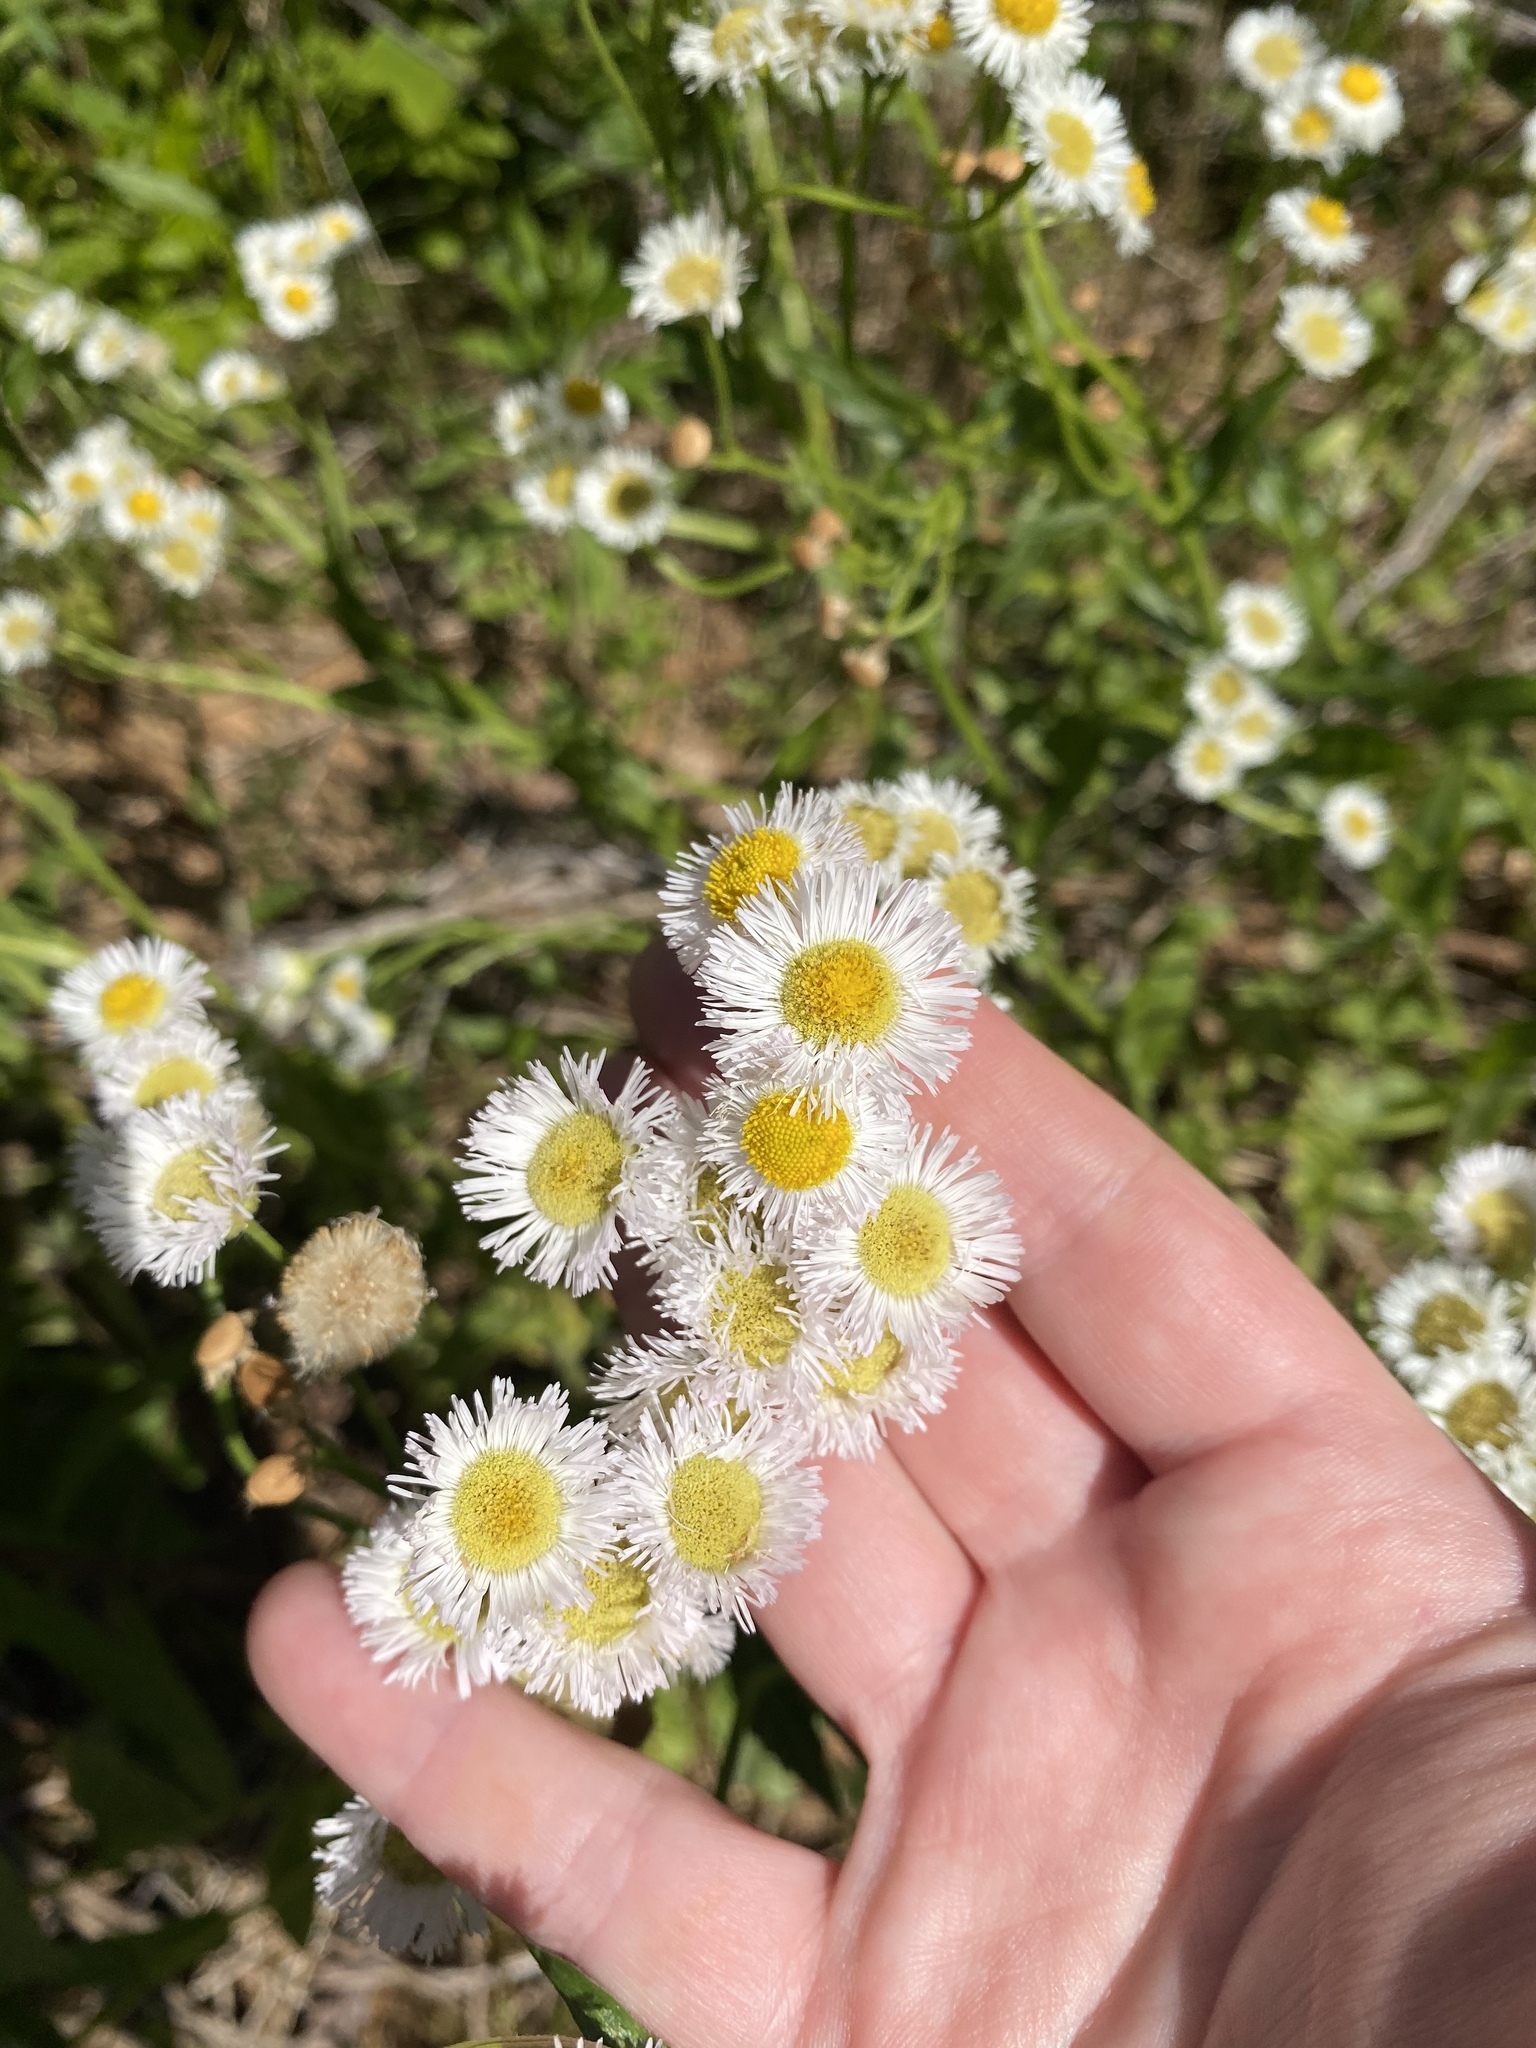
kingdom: Plantae
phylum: Tracheophyta
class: Magnoliopsida
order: Asterales
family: Asteraceae
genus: Erigeron
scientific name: Erigeron philadelphicus
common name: Robin's-plantain
